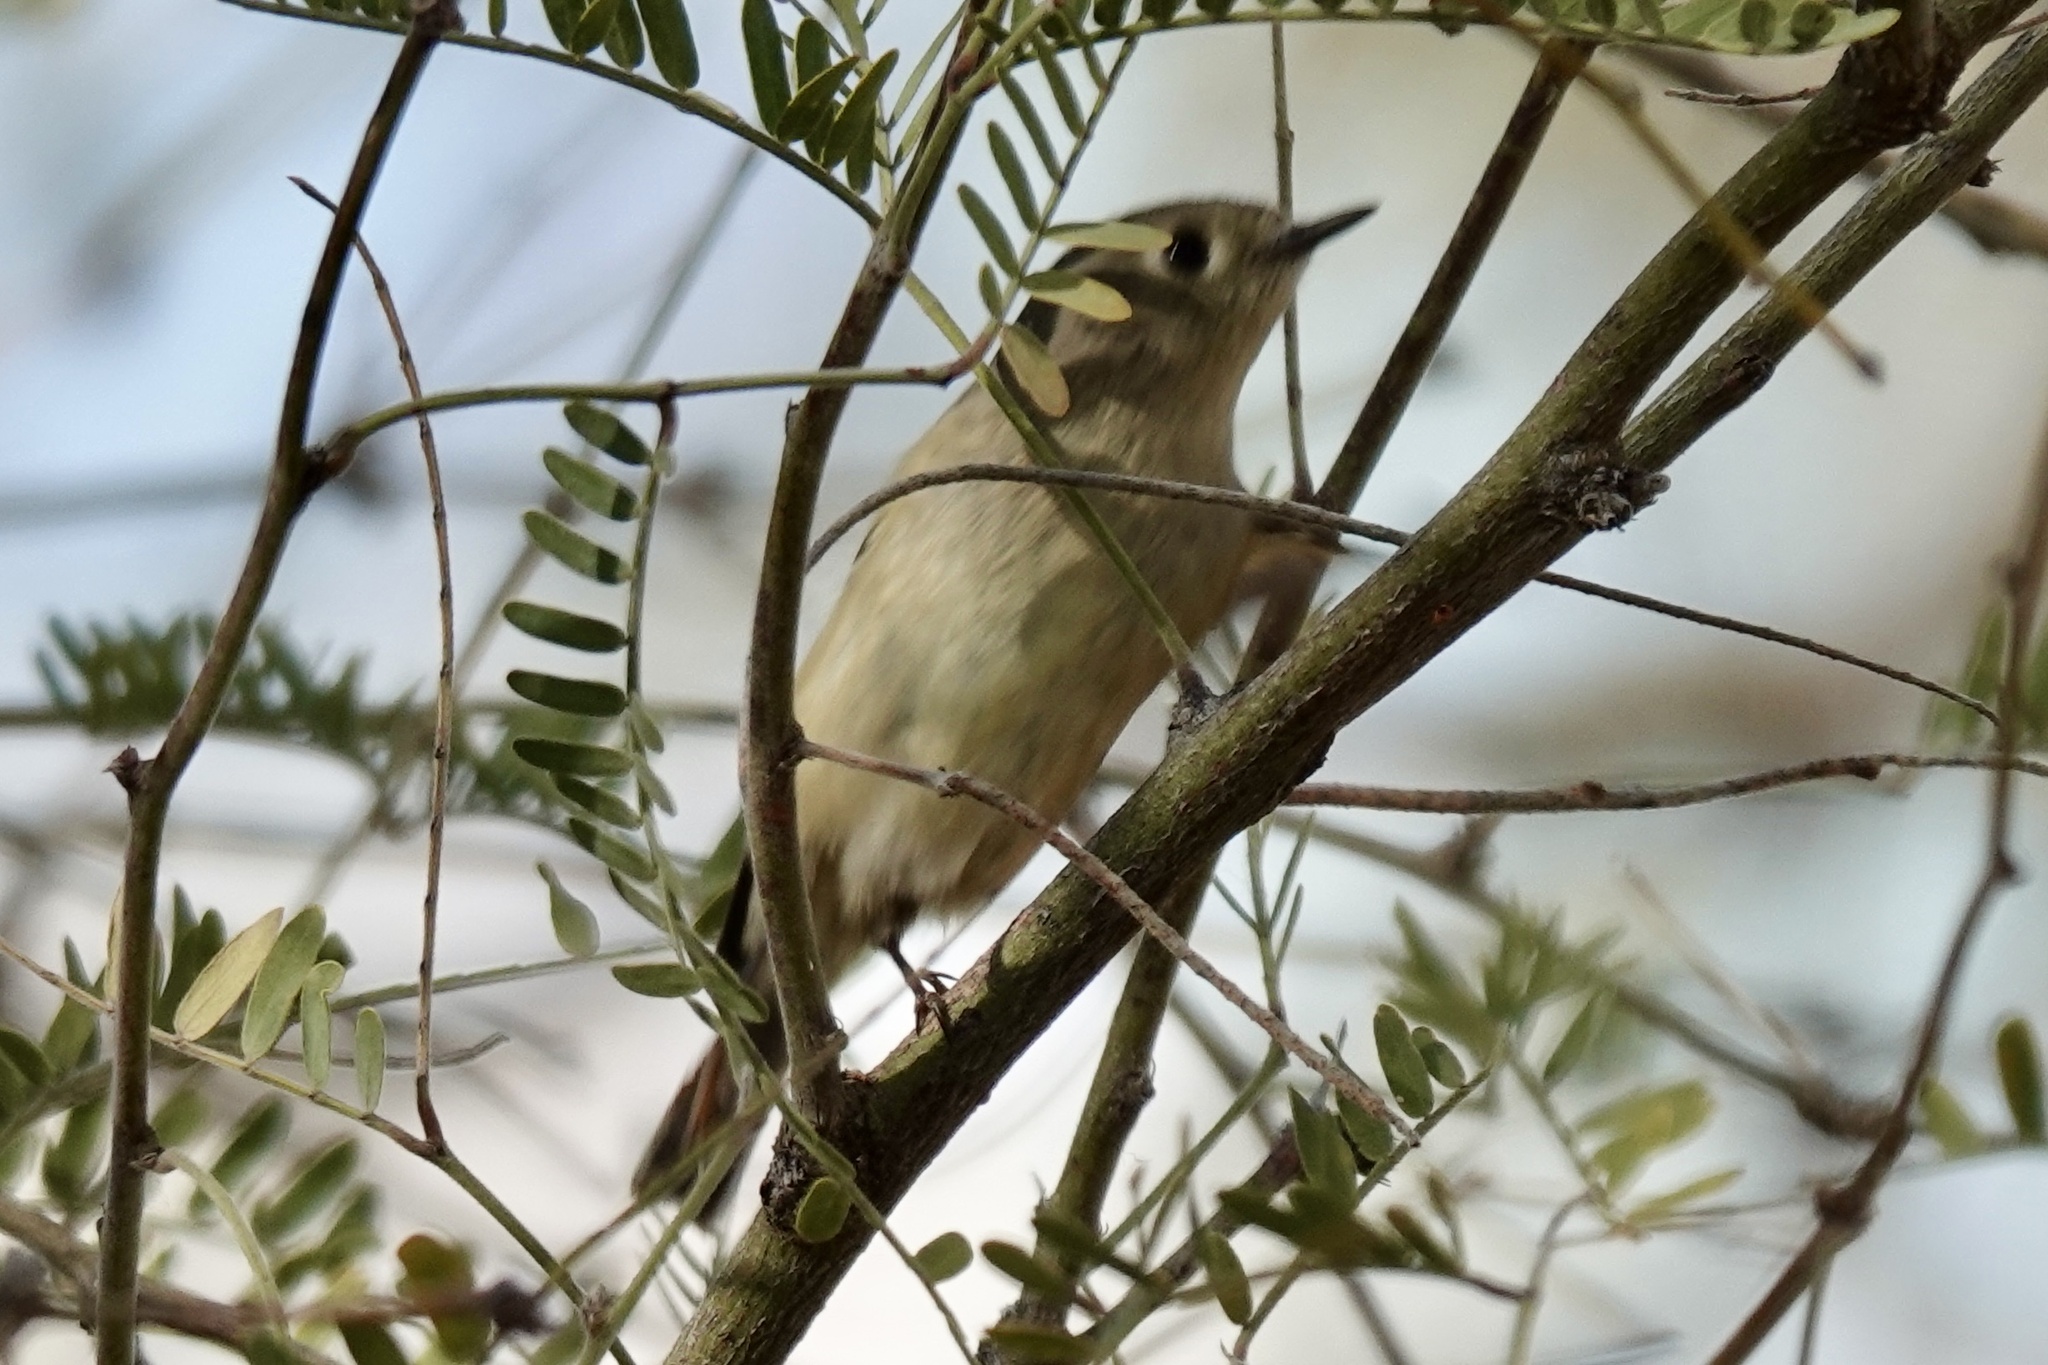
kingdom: Animalia
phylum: Chordata
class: Aves
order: Passeriformes
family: Regulidae
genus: Regulus
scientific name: Regulus calendula
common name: Ruby-crowned kinglet
